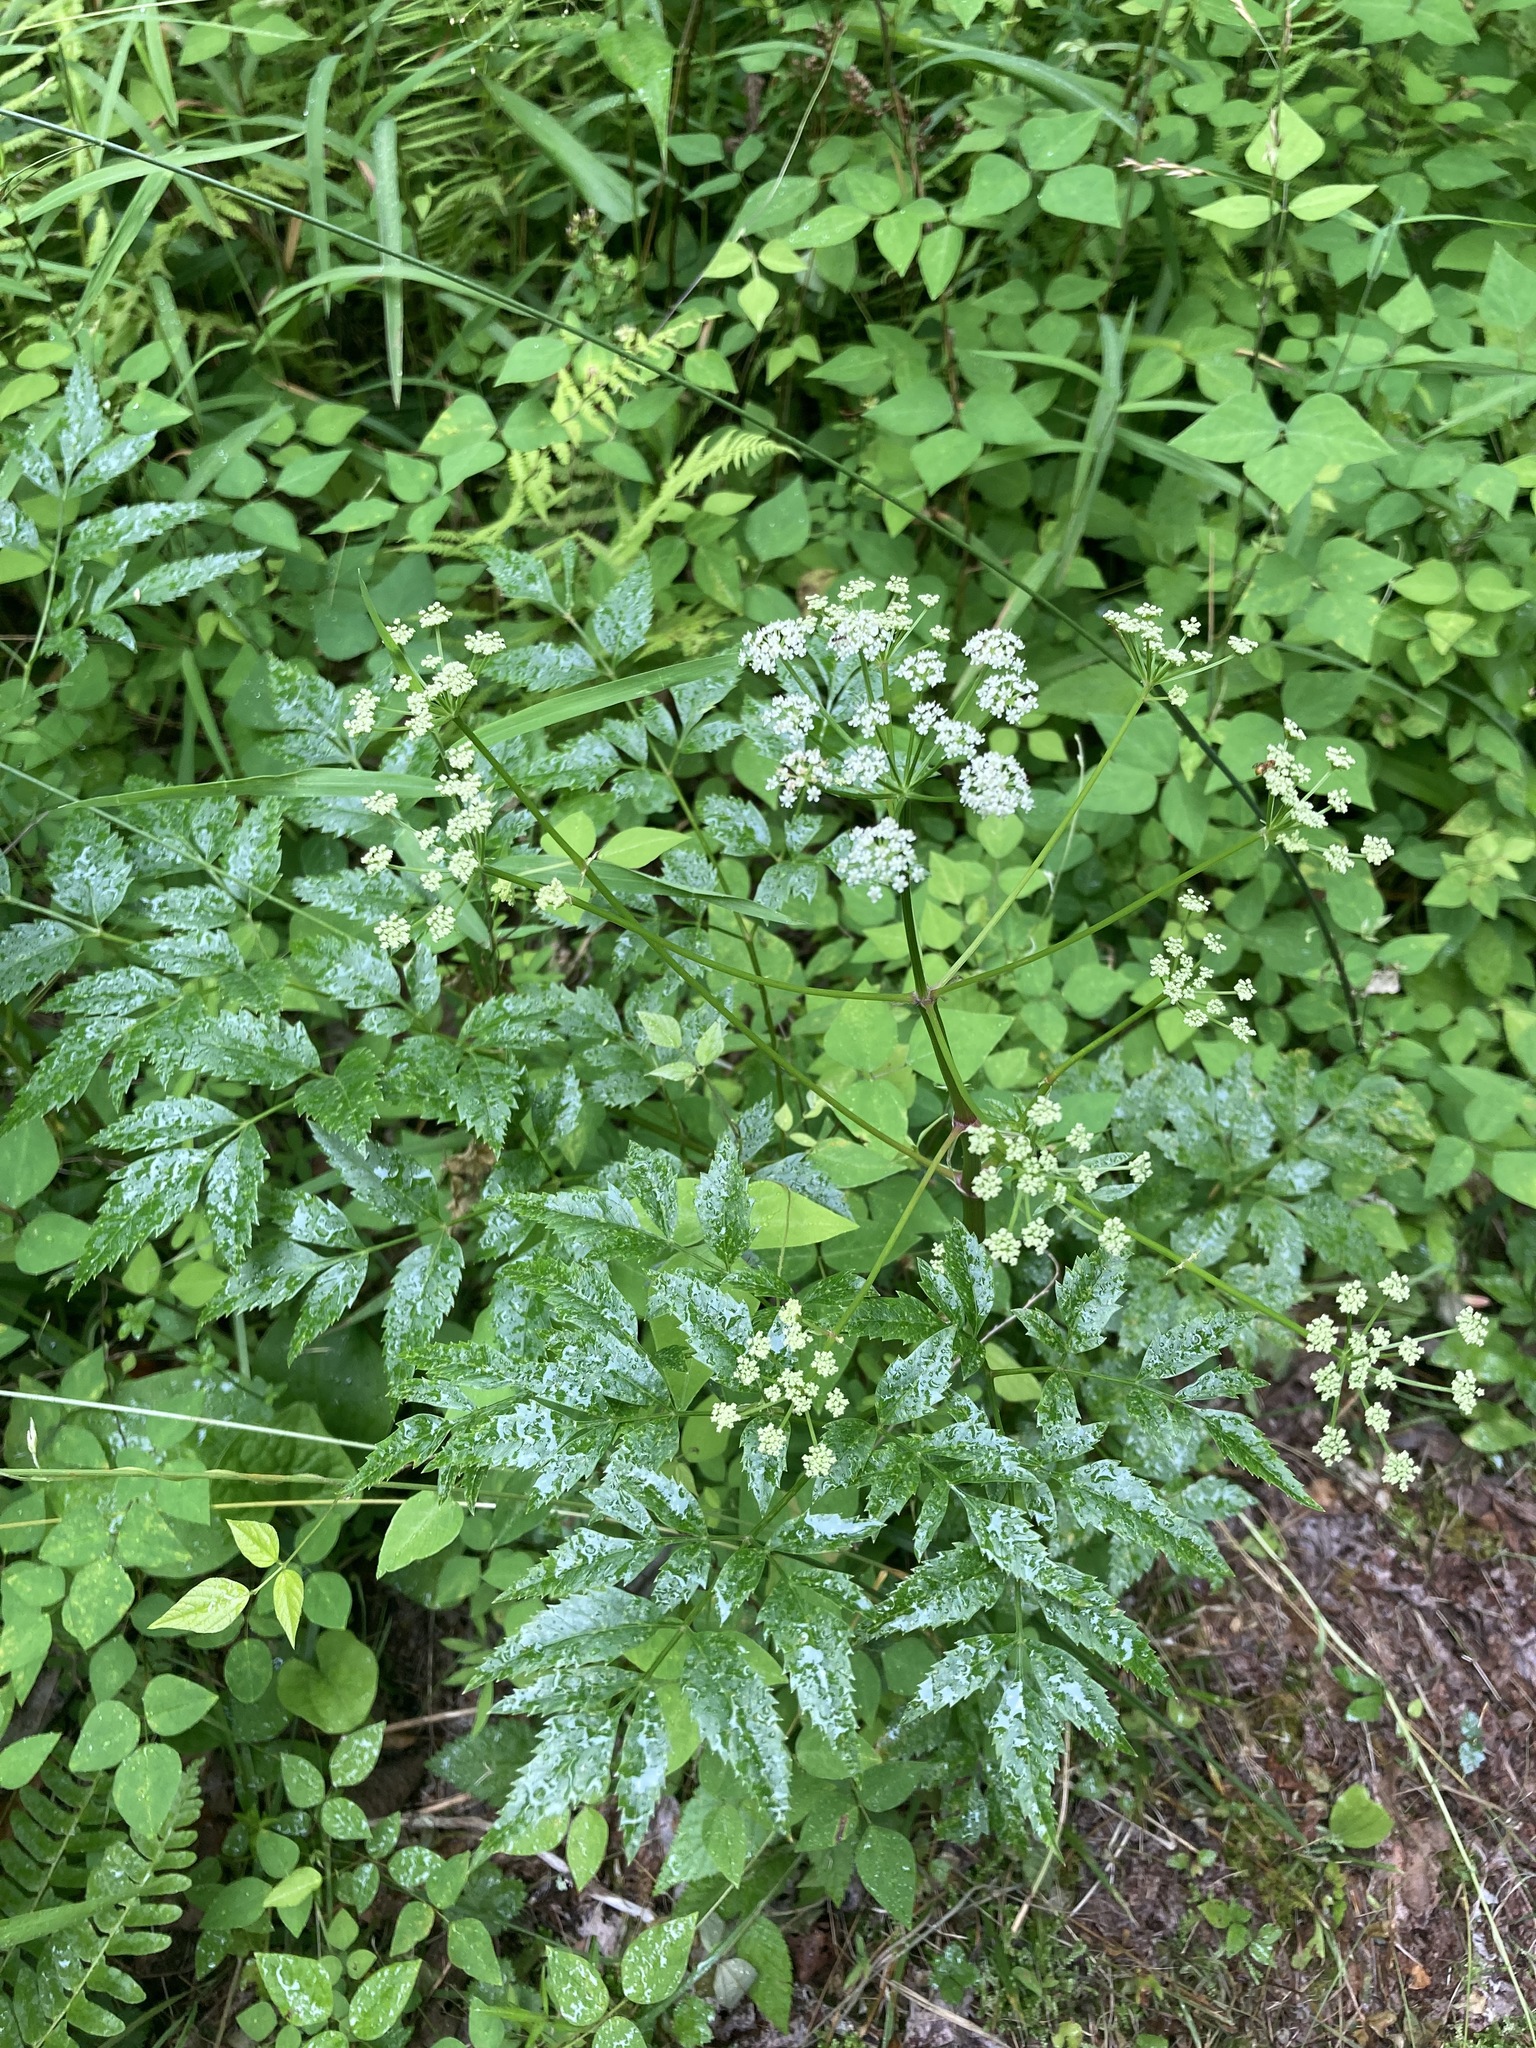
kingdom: Plantae
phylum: Tracheophyta
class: Magnoliopsida
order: Apiales
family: Apiaceae
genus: Cicuta
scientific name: Cicuta maculata
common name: Spotted cowbane
